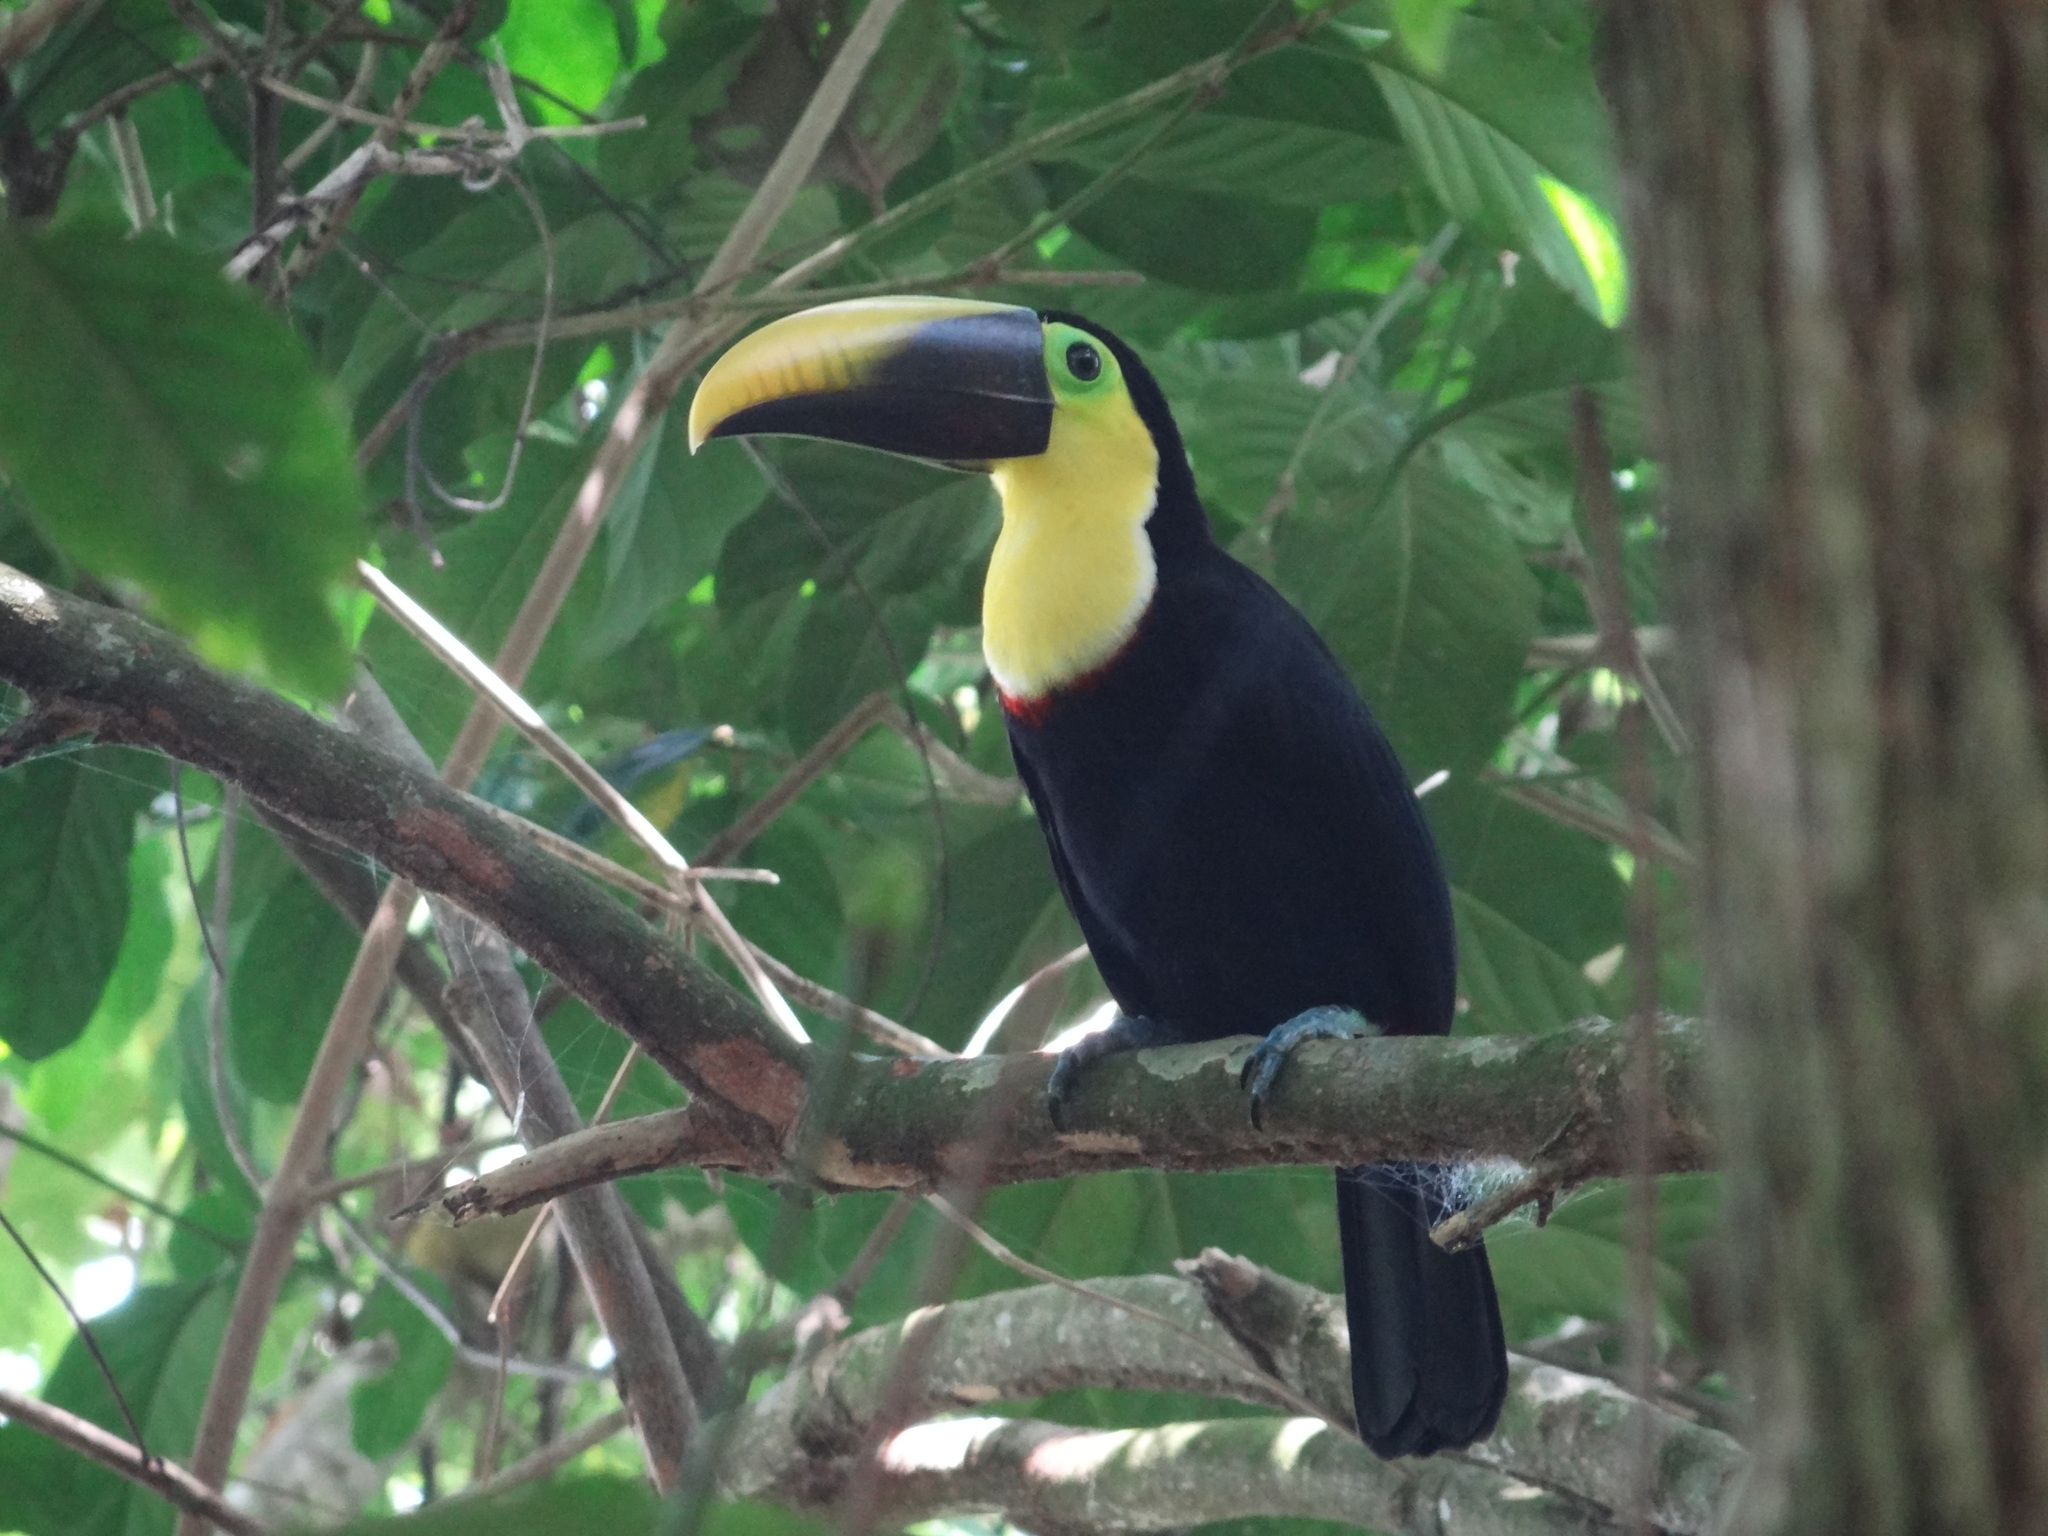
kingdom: Animalia
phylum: Chordata
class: Aves
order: Piciformes
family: Ramphastidae
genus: Ramphastos
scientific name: Ramphastos ambiguus
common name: Yellow-throated toucan
